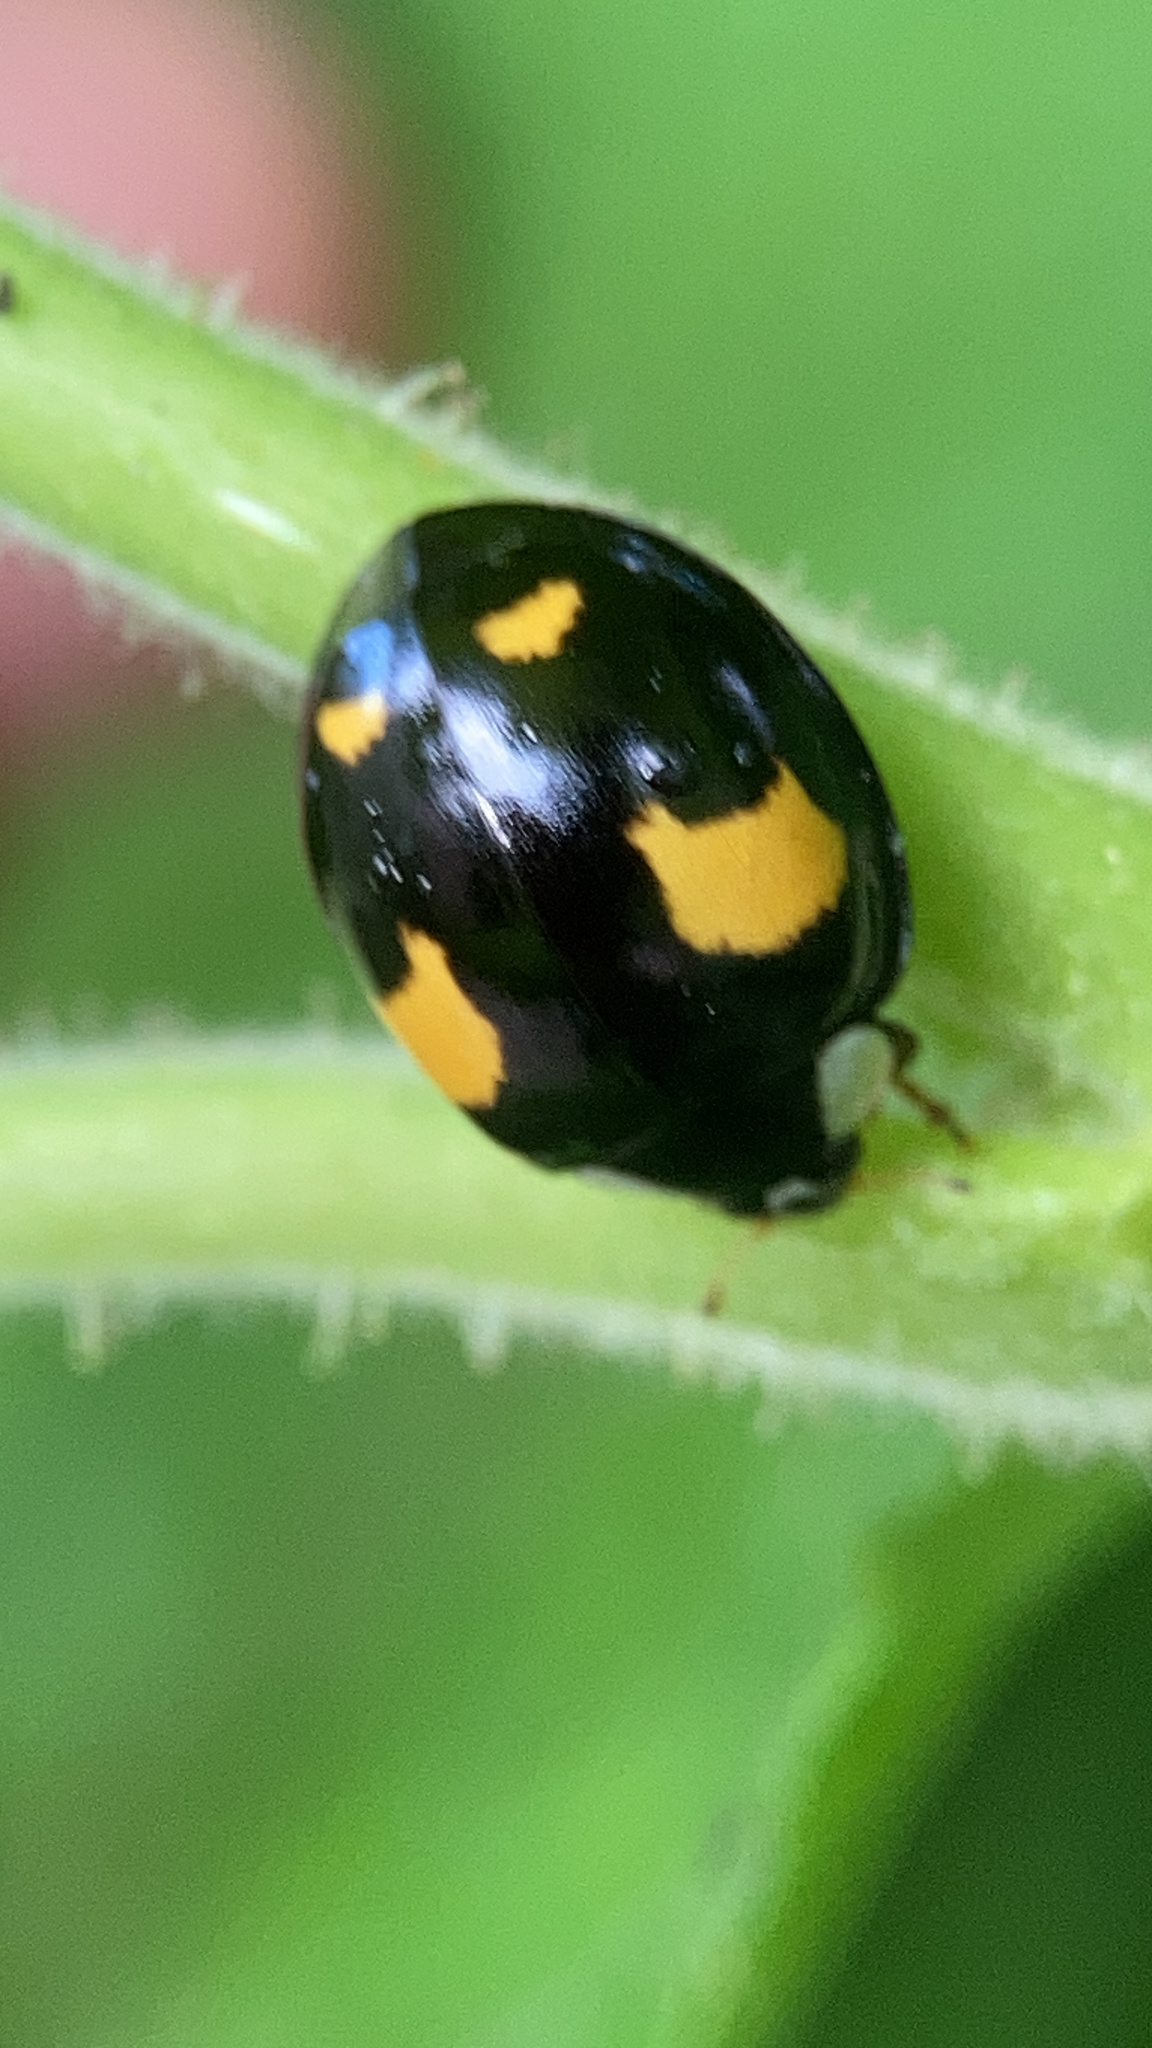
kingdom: Animalia
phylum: Arthropoda
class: Insecta
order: Coleoptera
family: Coccinellidae
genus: Harmonia
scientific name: Harmonia axyridis
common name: Harlequin ladybird
